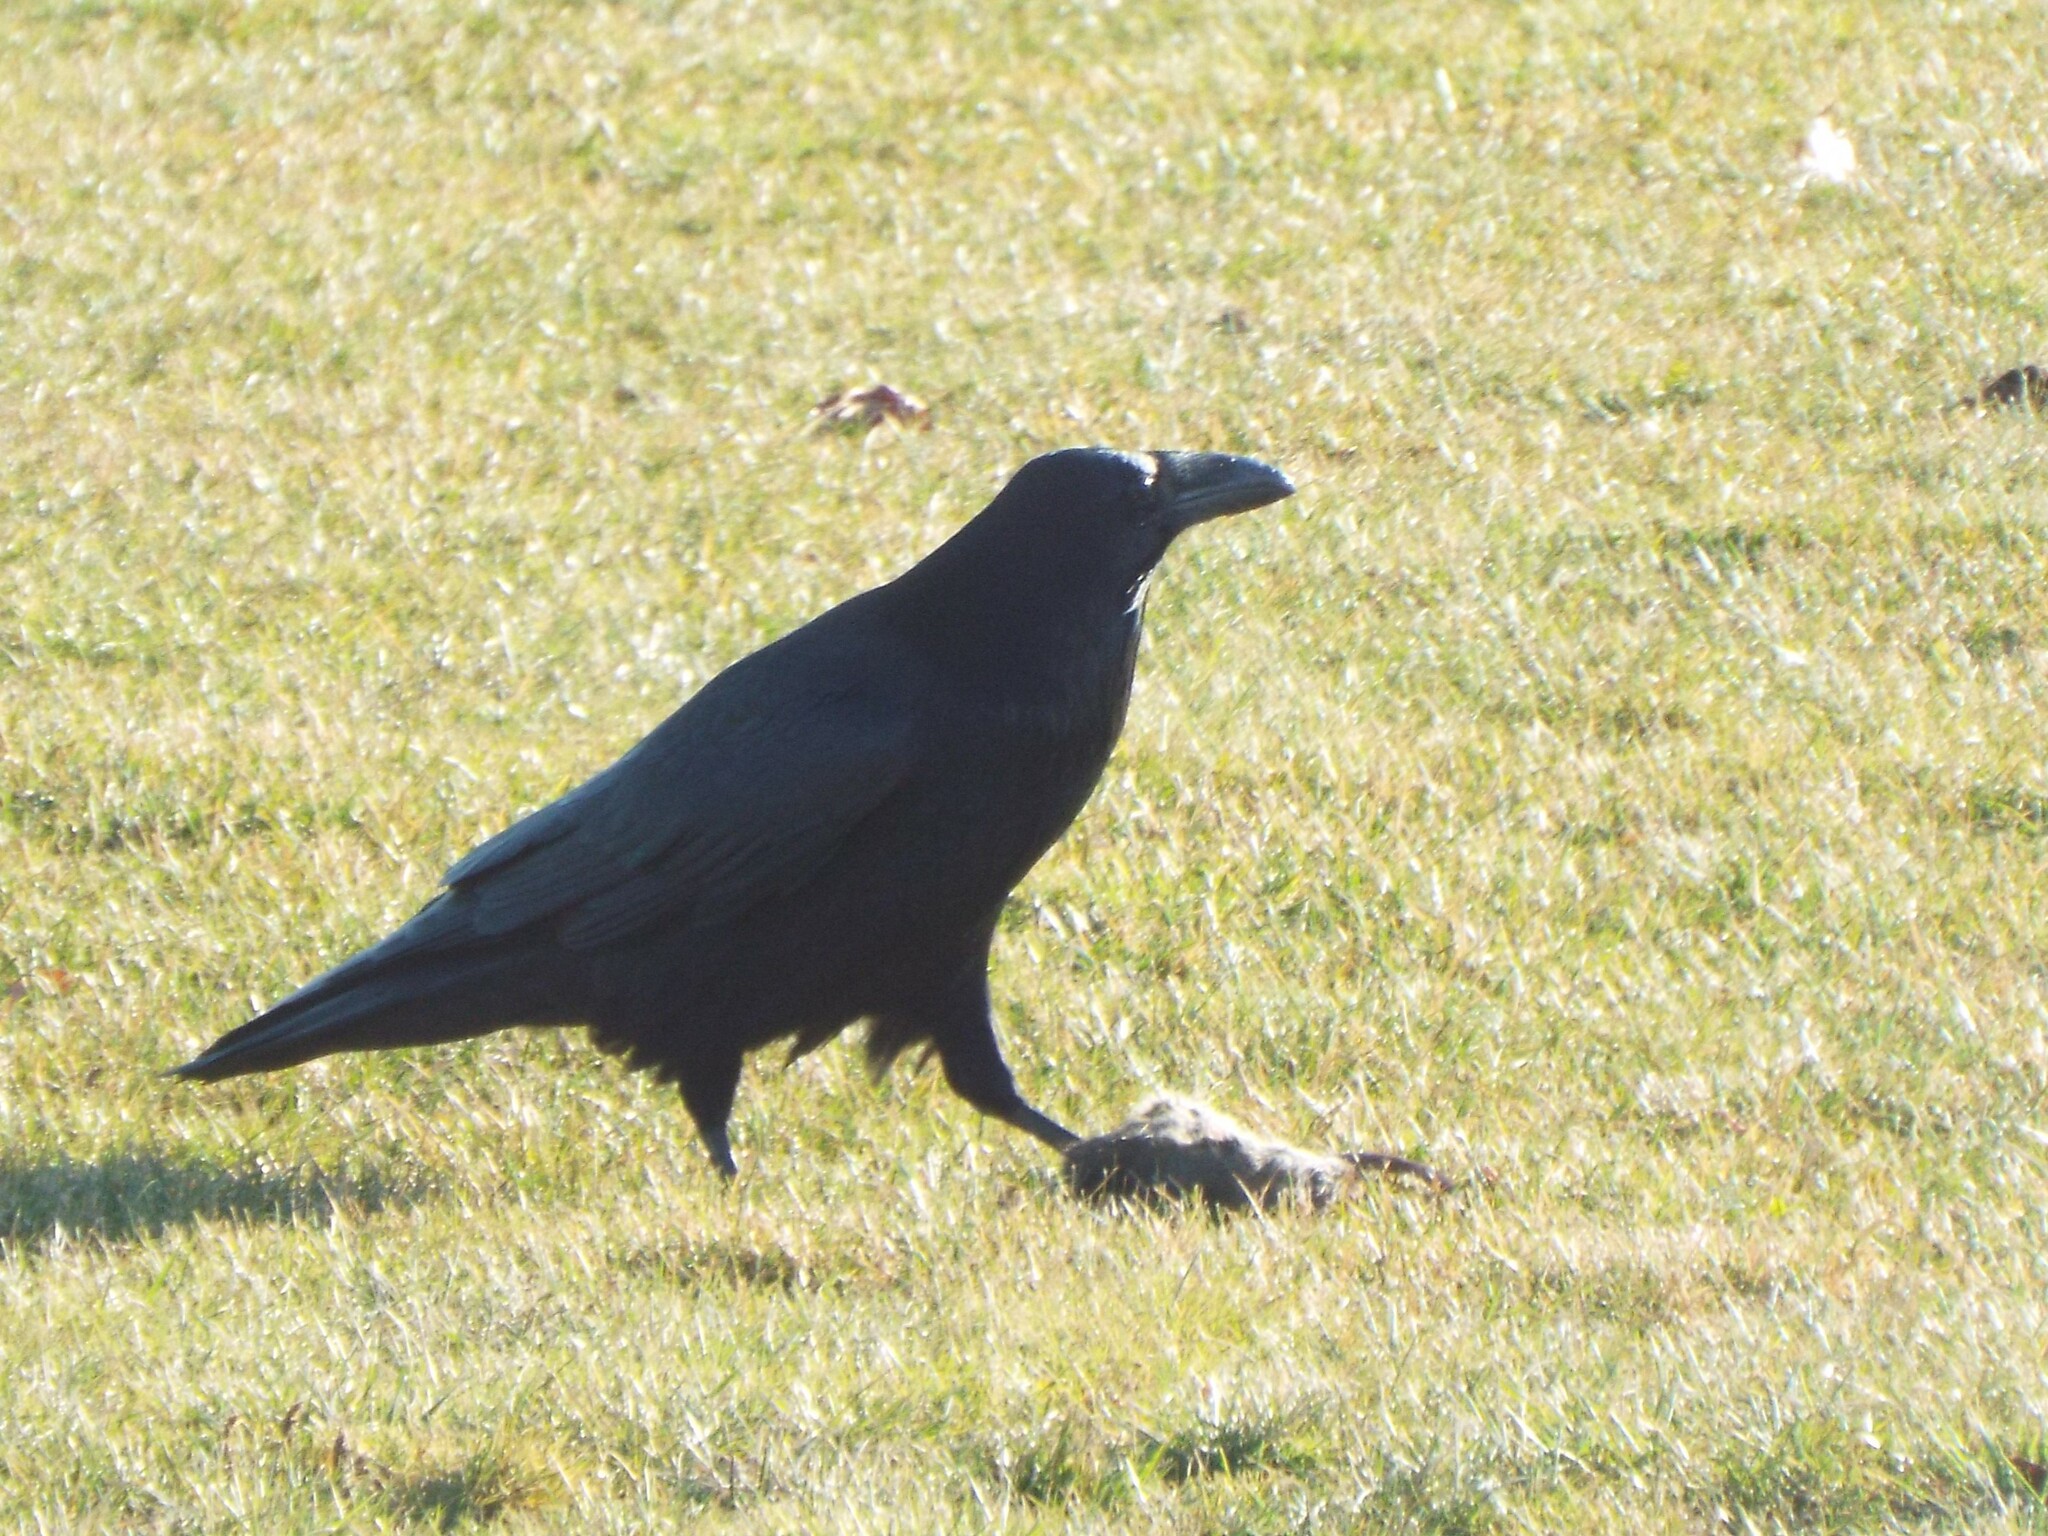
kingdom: Animalia
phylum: Chordata
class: Aves
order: Passeriformes
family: Corvidae
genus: Corvus
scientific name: Corvus corax
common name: Common raven
